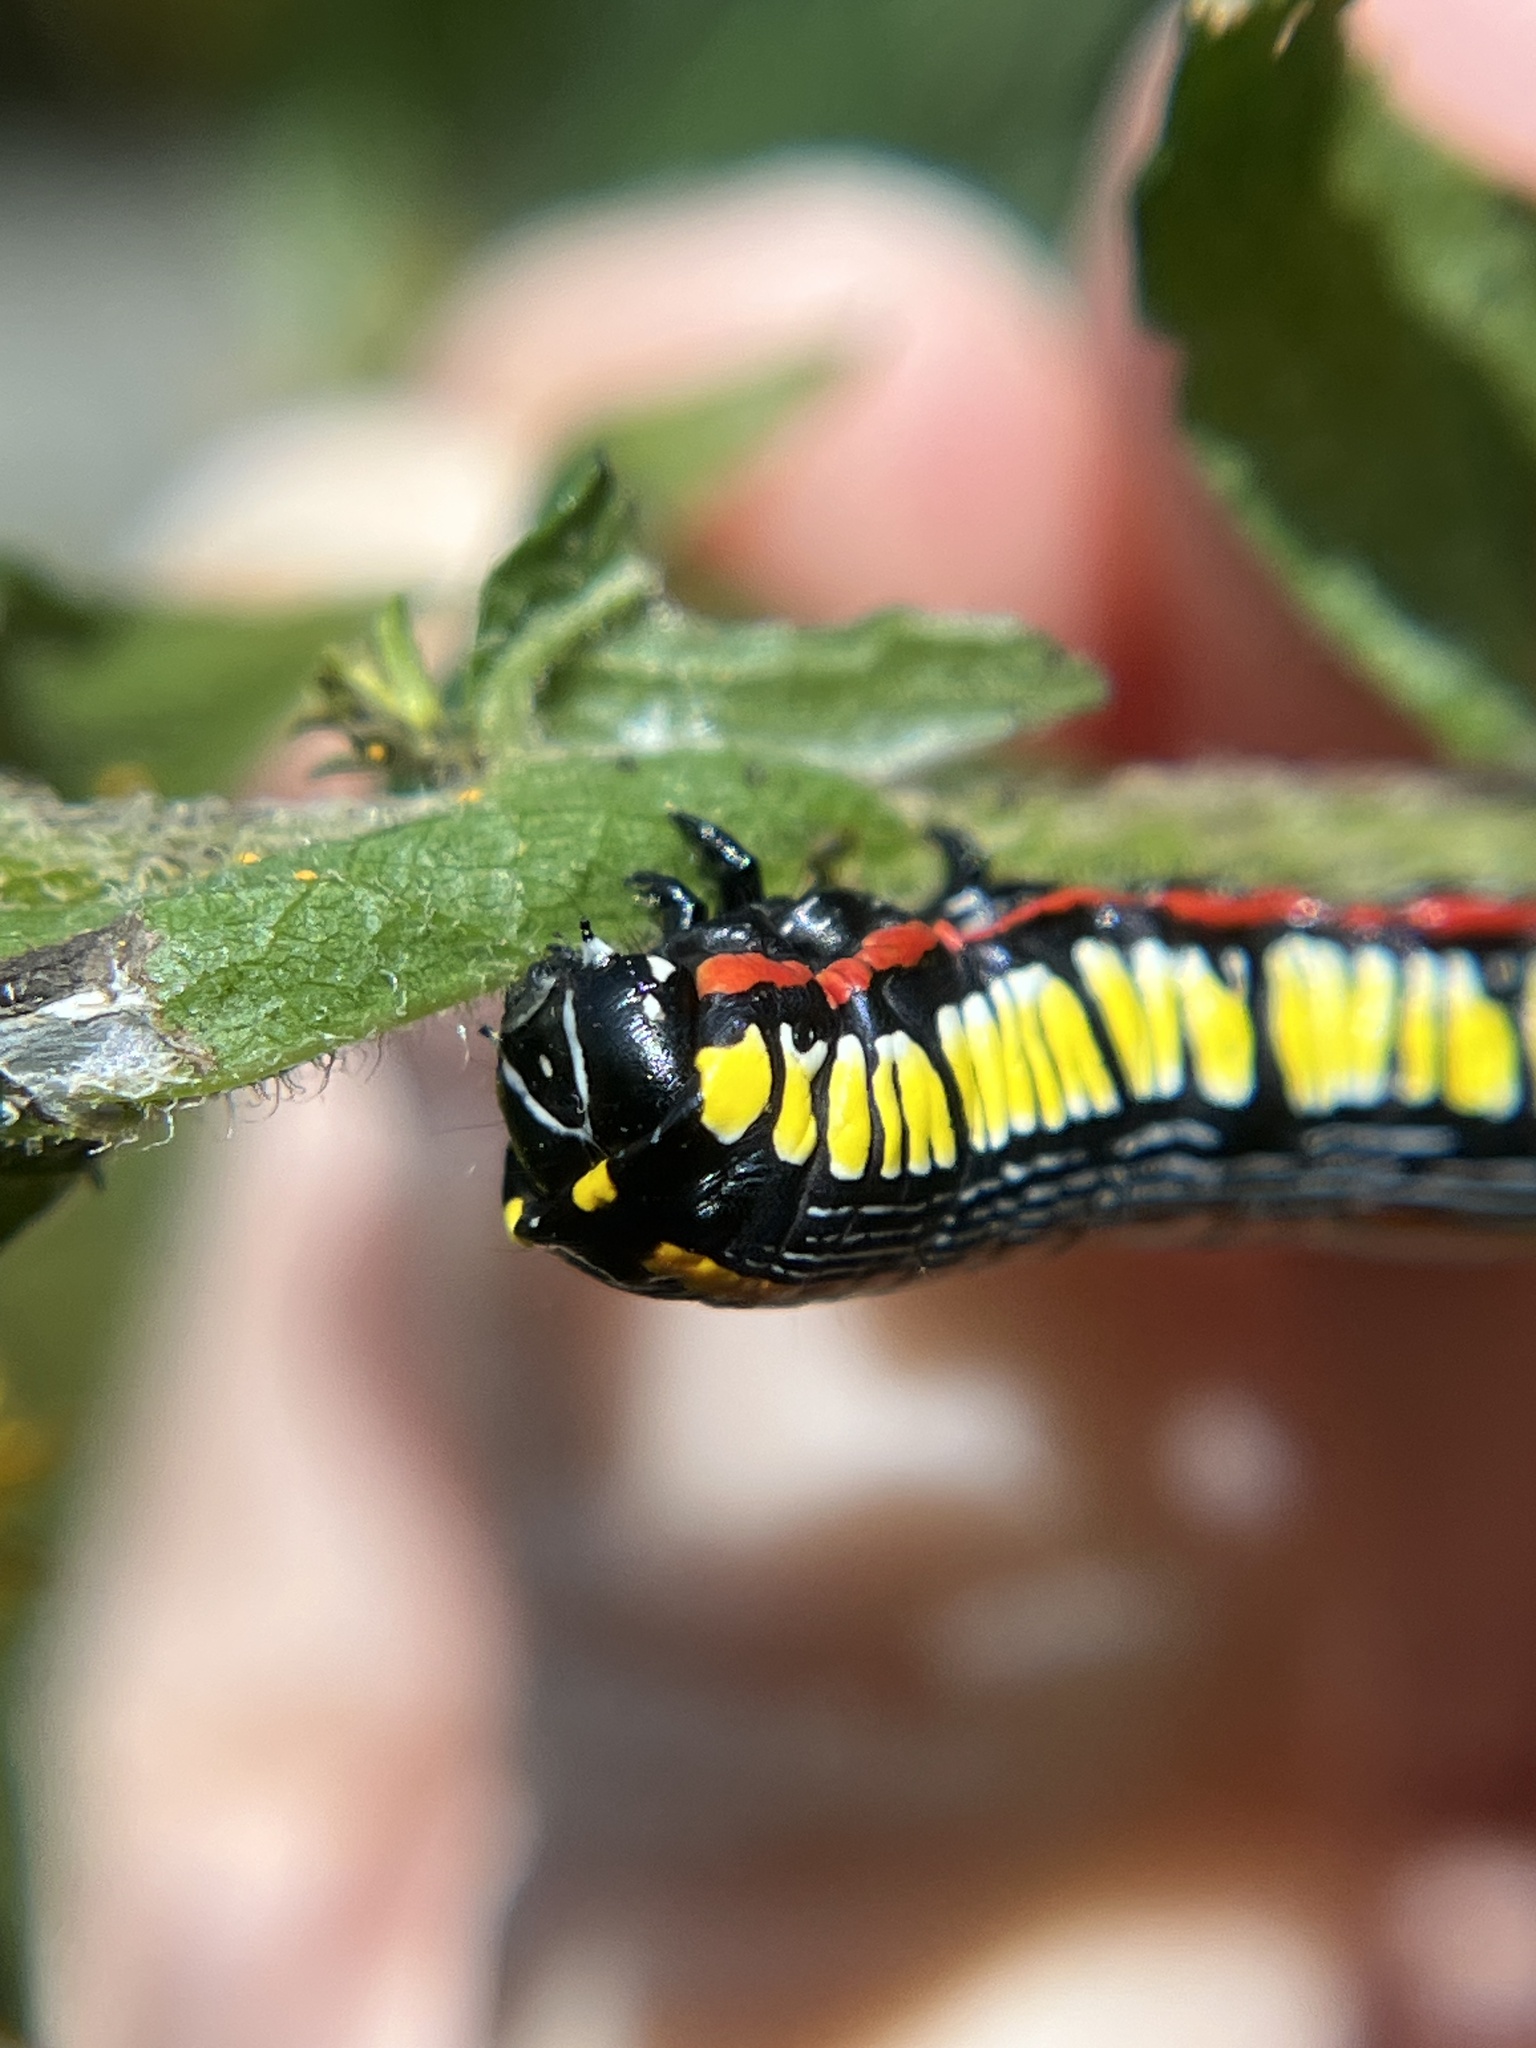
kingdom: Animalia
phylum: Arthropoda
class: Insecta
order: Lepidoptera
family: Noctuidae
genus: Cucullia
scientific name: Cucullia convexipennis
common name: Brown-hooded owlet
